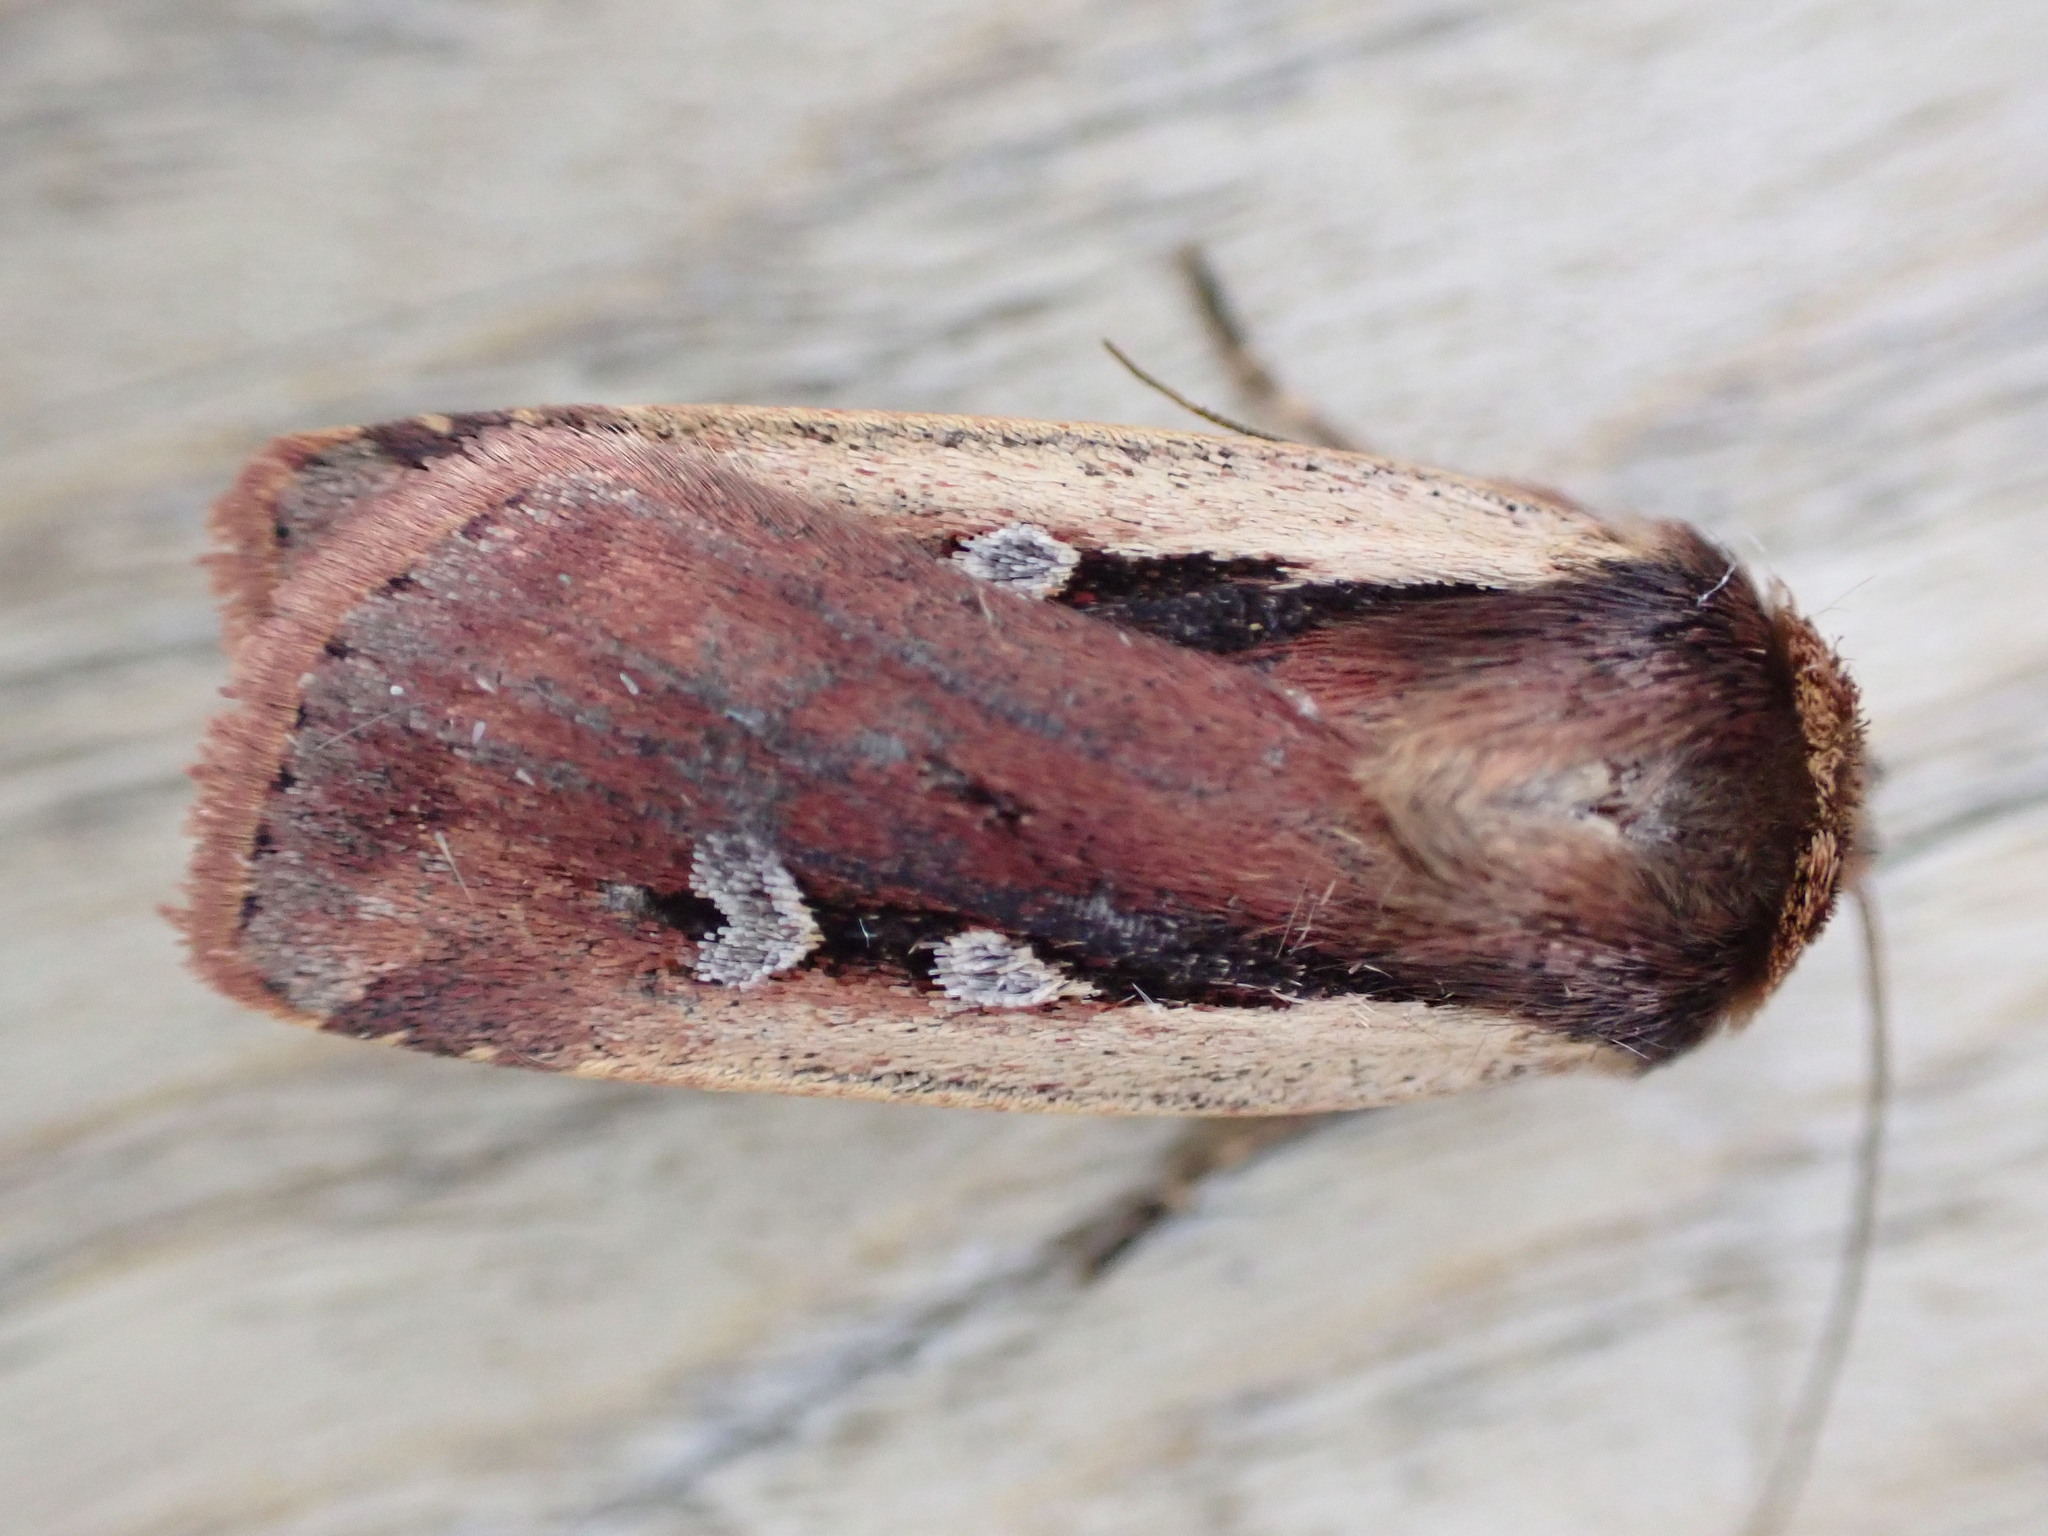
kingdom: Animalia
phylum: Arthropoda
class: Insecta
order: Lepidoptera
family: Noctuidae
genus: Ochropleura
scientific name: Ochropleura plecta
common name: Flame shoulder
